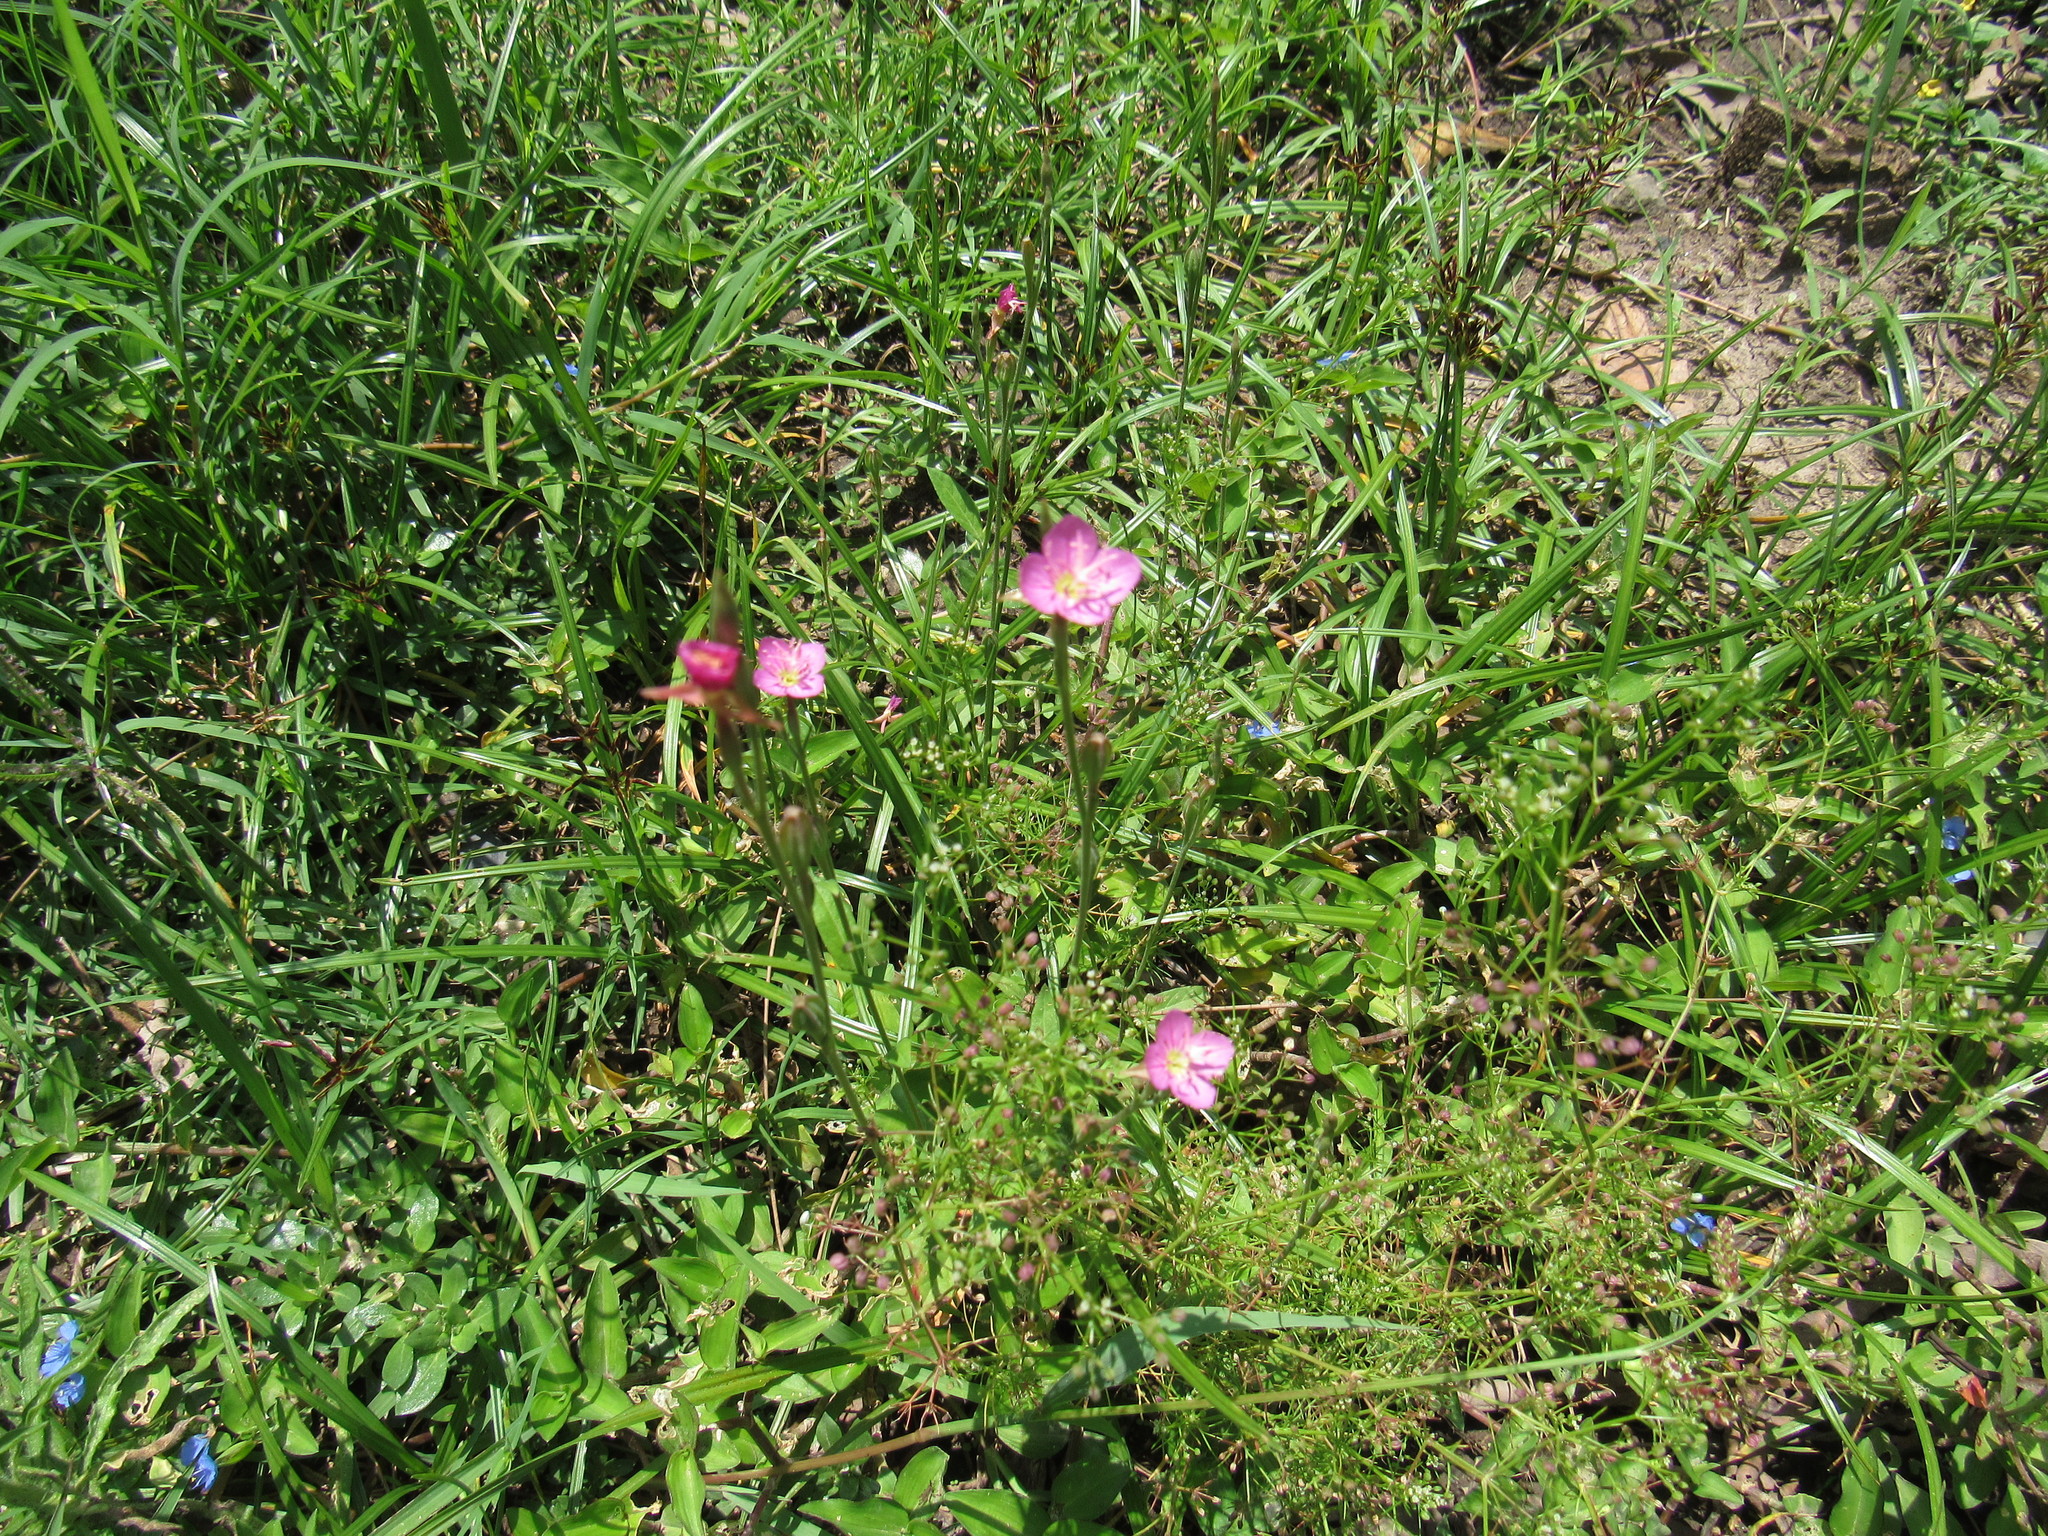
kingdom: Plantae
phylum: Tracheophyta
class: Magnoliopsida
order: Myrtales
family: Onagraceae
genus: Oenothera
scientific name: Oenothera rosea
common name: Rosy evening-primrose
